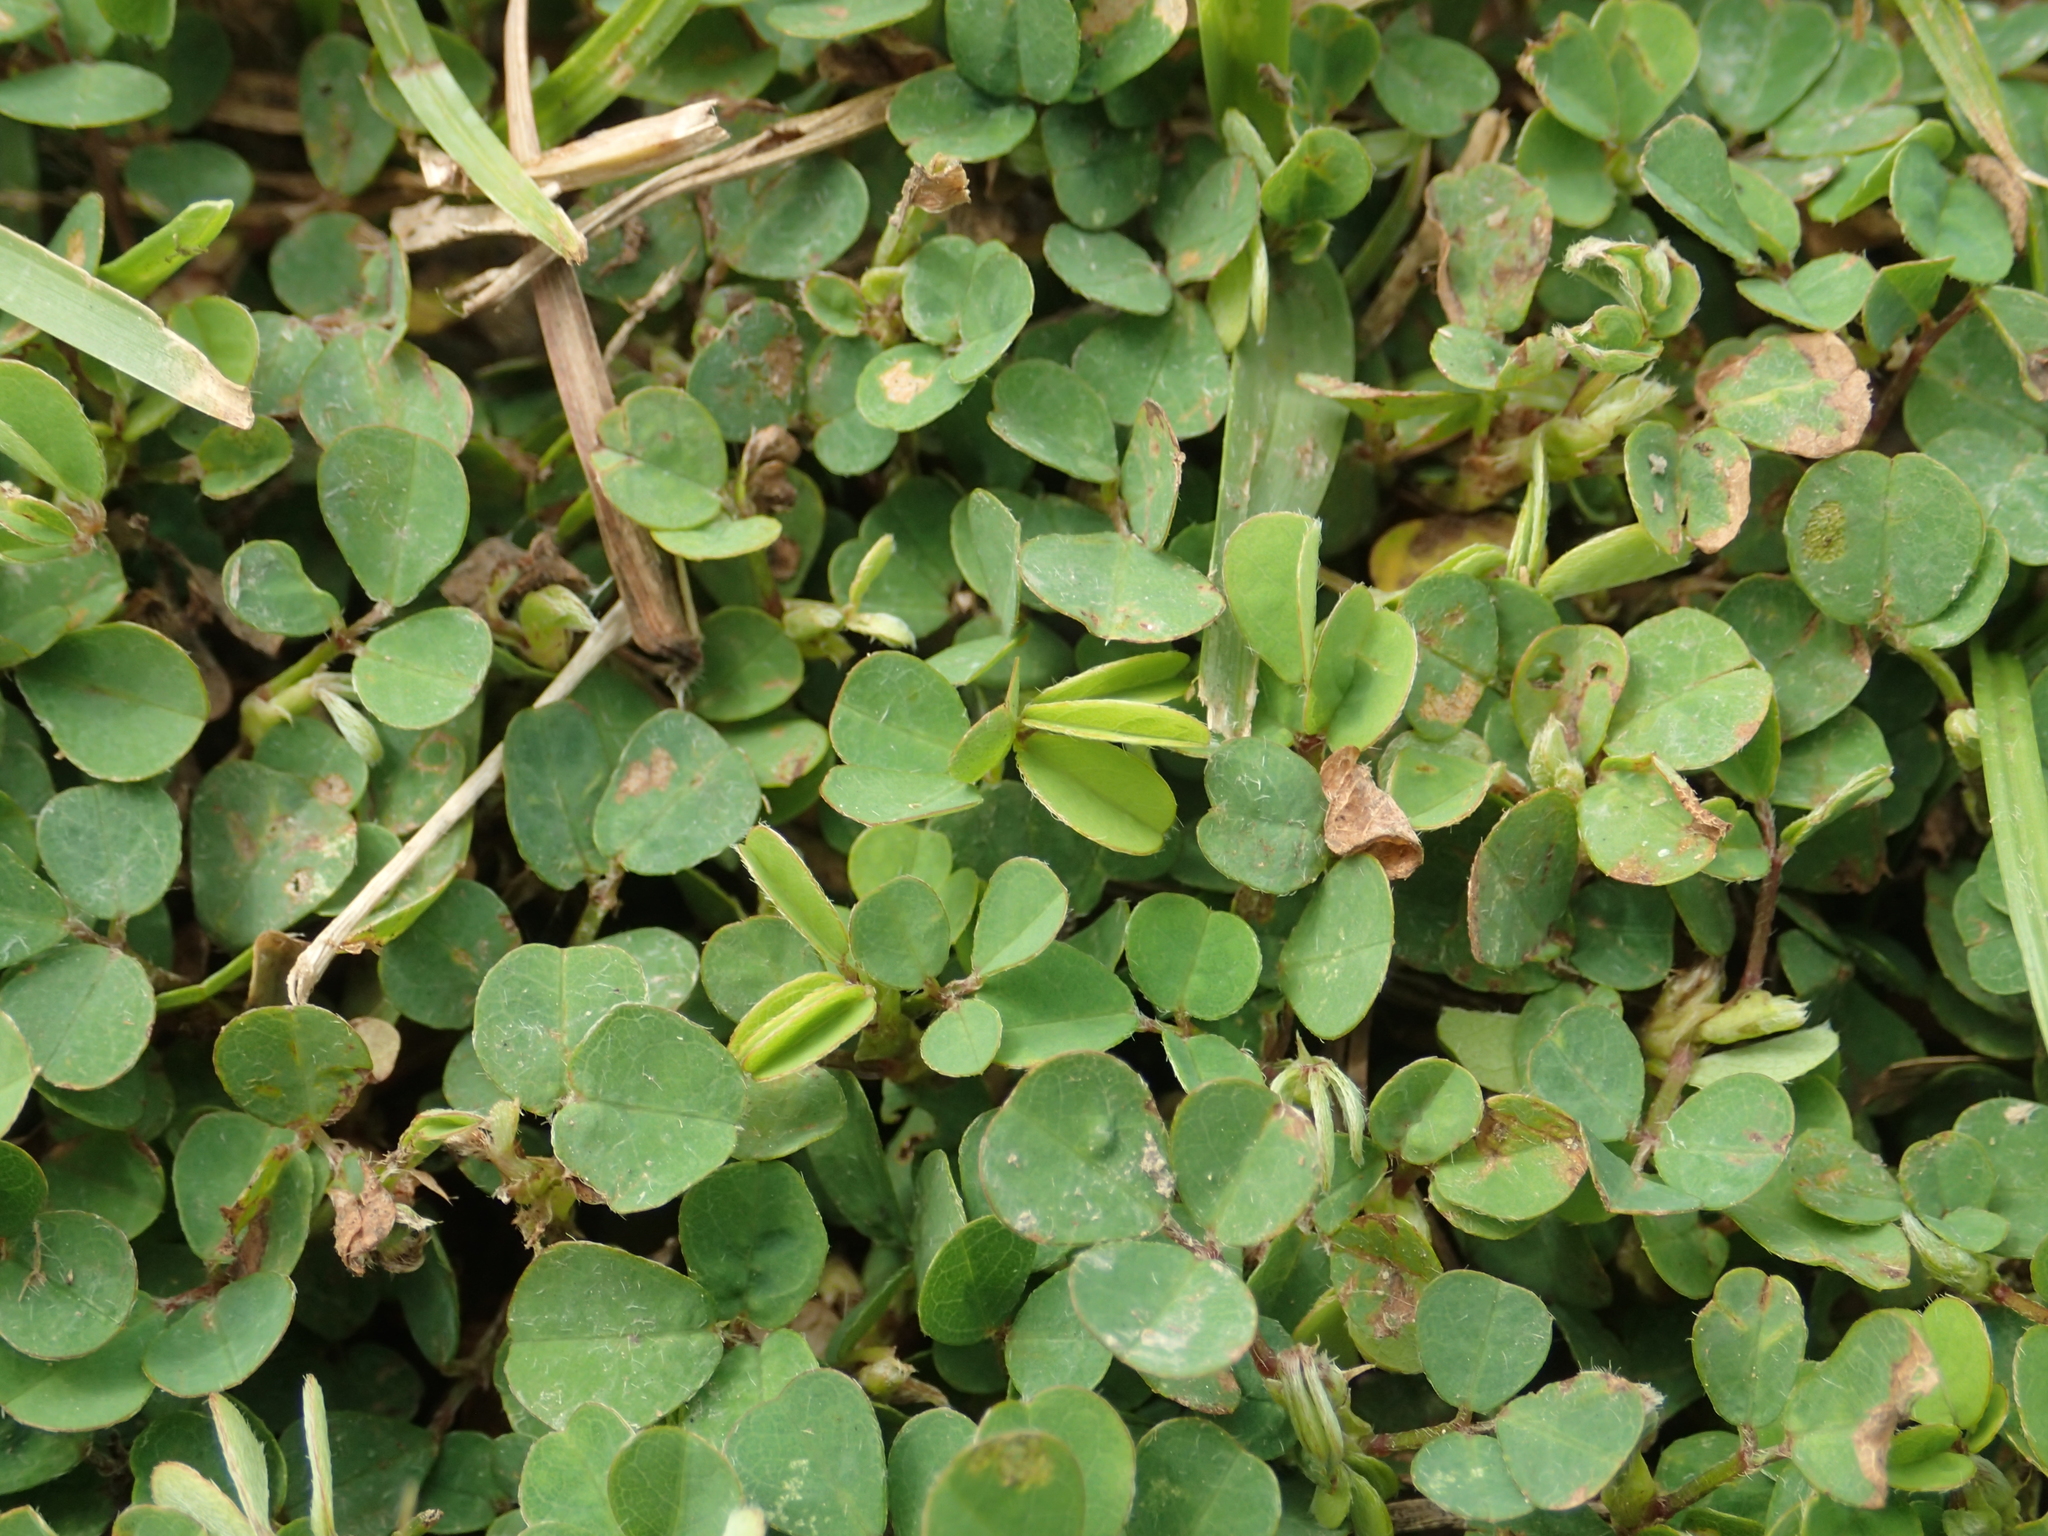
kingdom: Plantae
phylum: Tracheophyta
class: Magnoliopsida
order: Fabales
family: Fabaceae
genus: Grona
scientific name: Grona triflora
